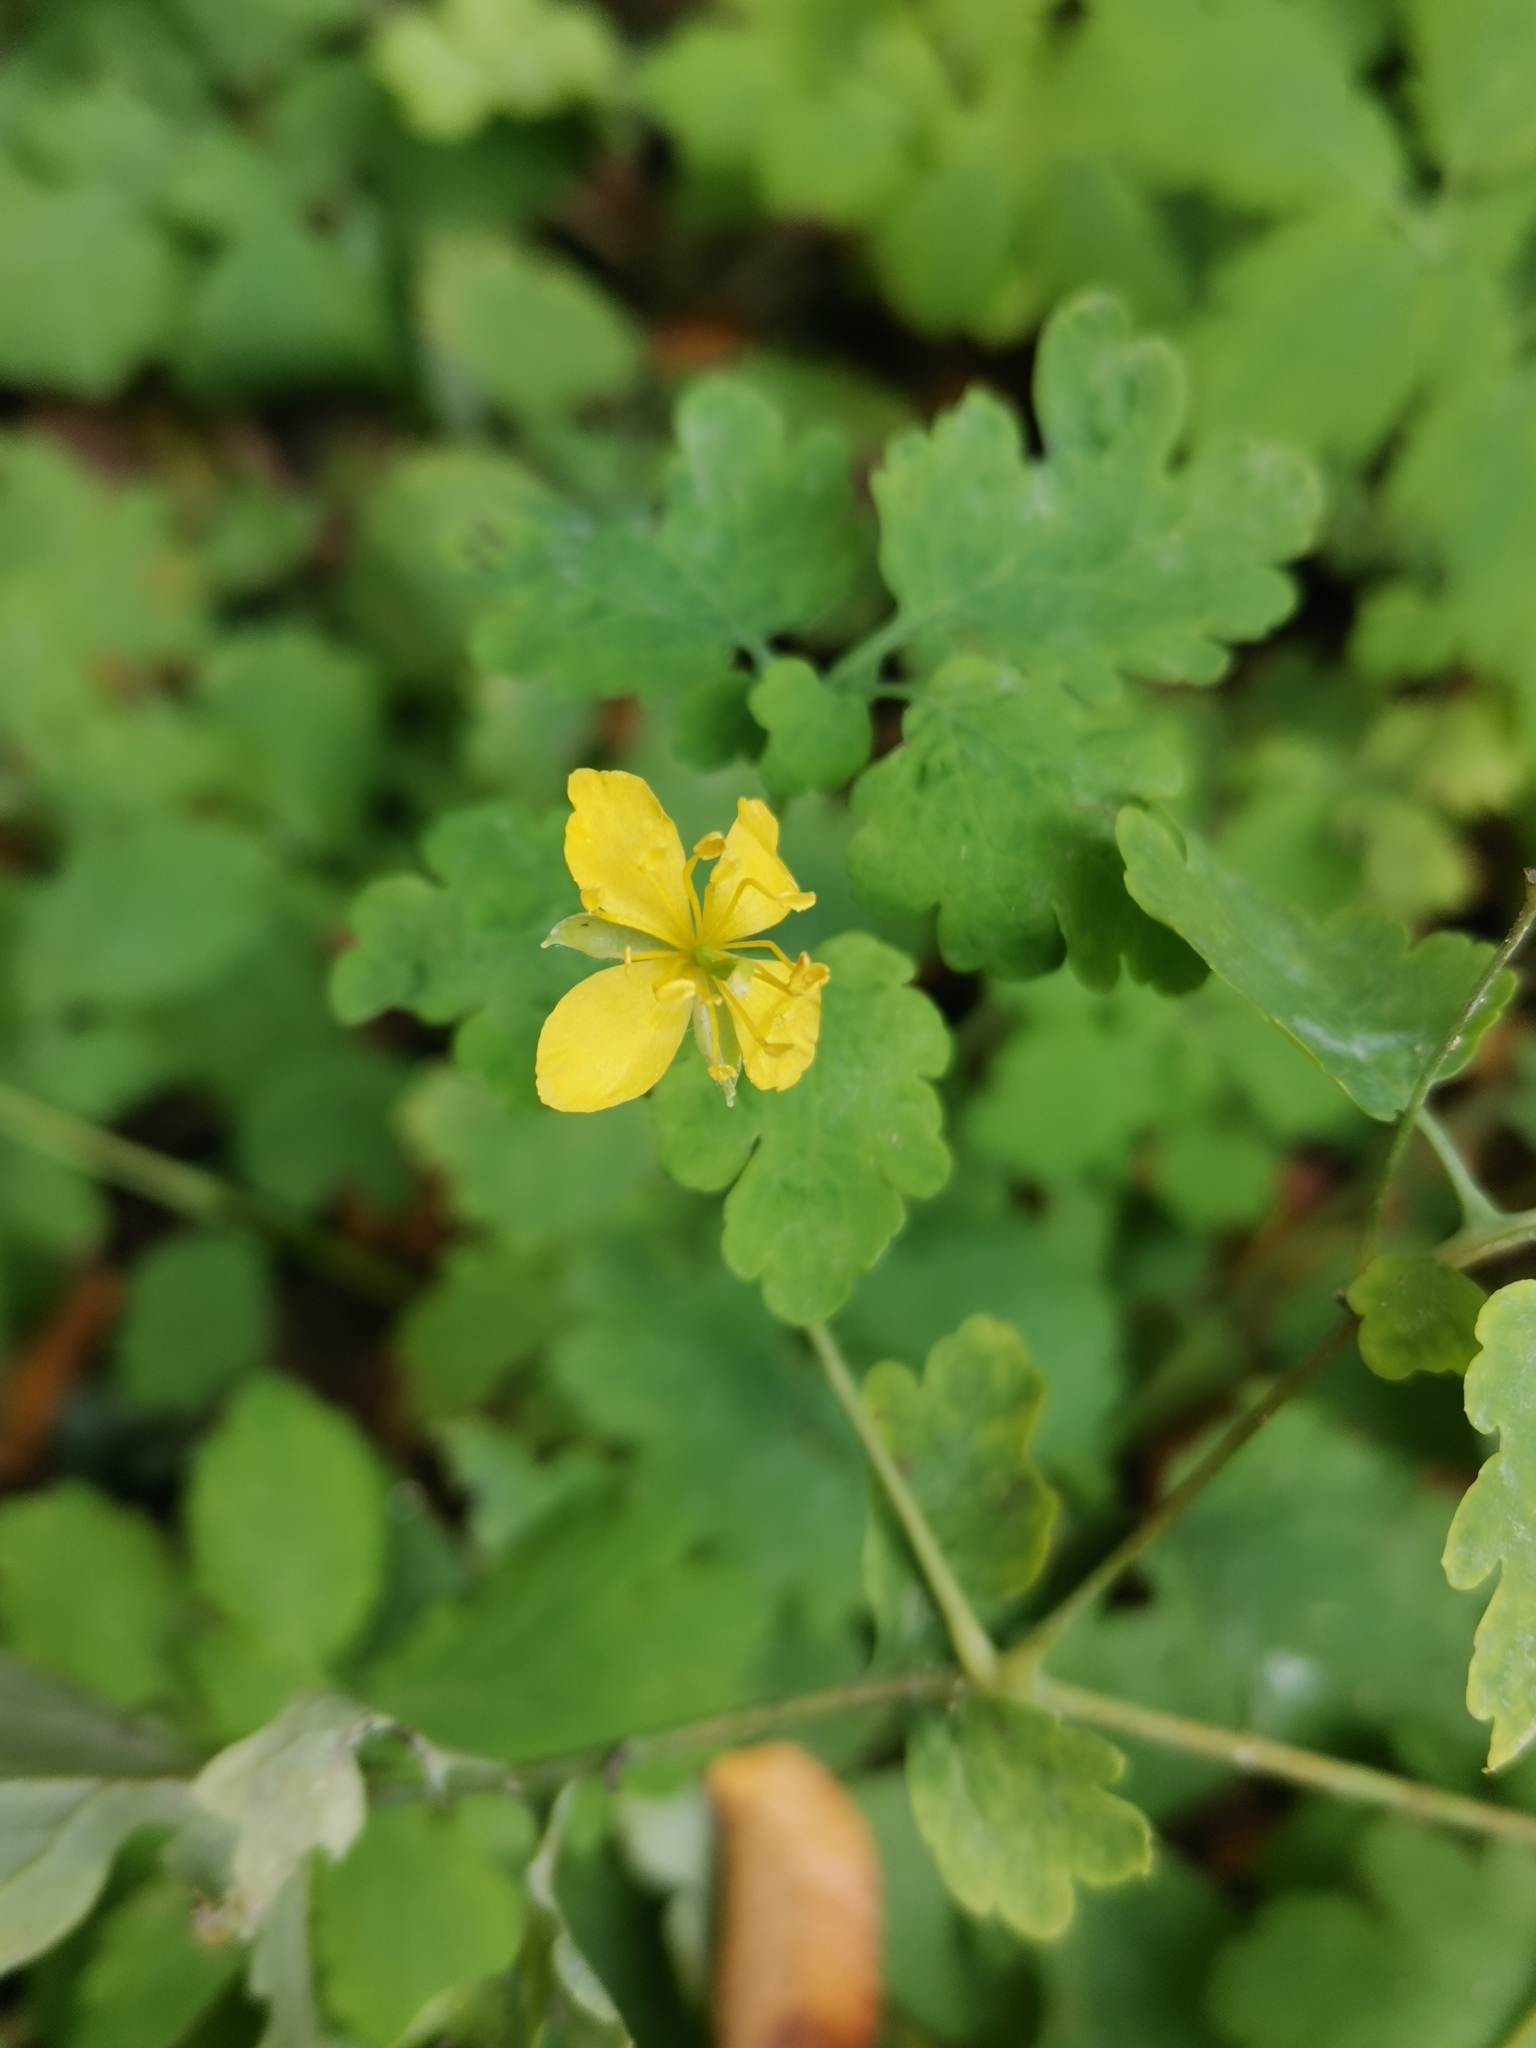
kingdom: Plantae
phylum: Tracheophyta
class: Magnoliopsida
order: Ranunculales
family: Papaveraceae
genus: Chelidonium
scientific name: Chelidonium majus
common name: Greater celandine
